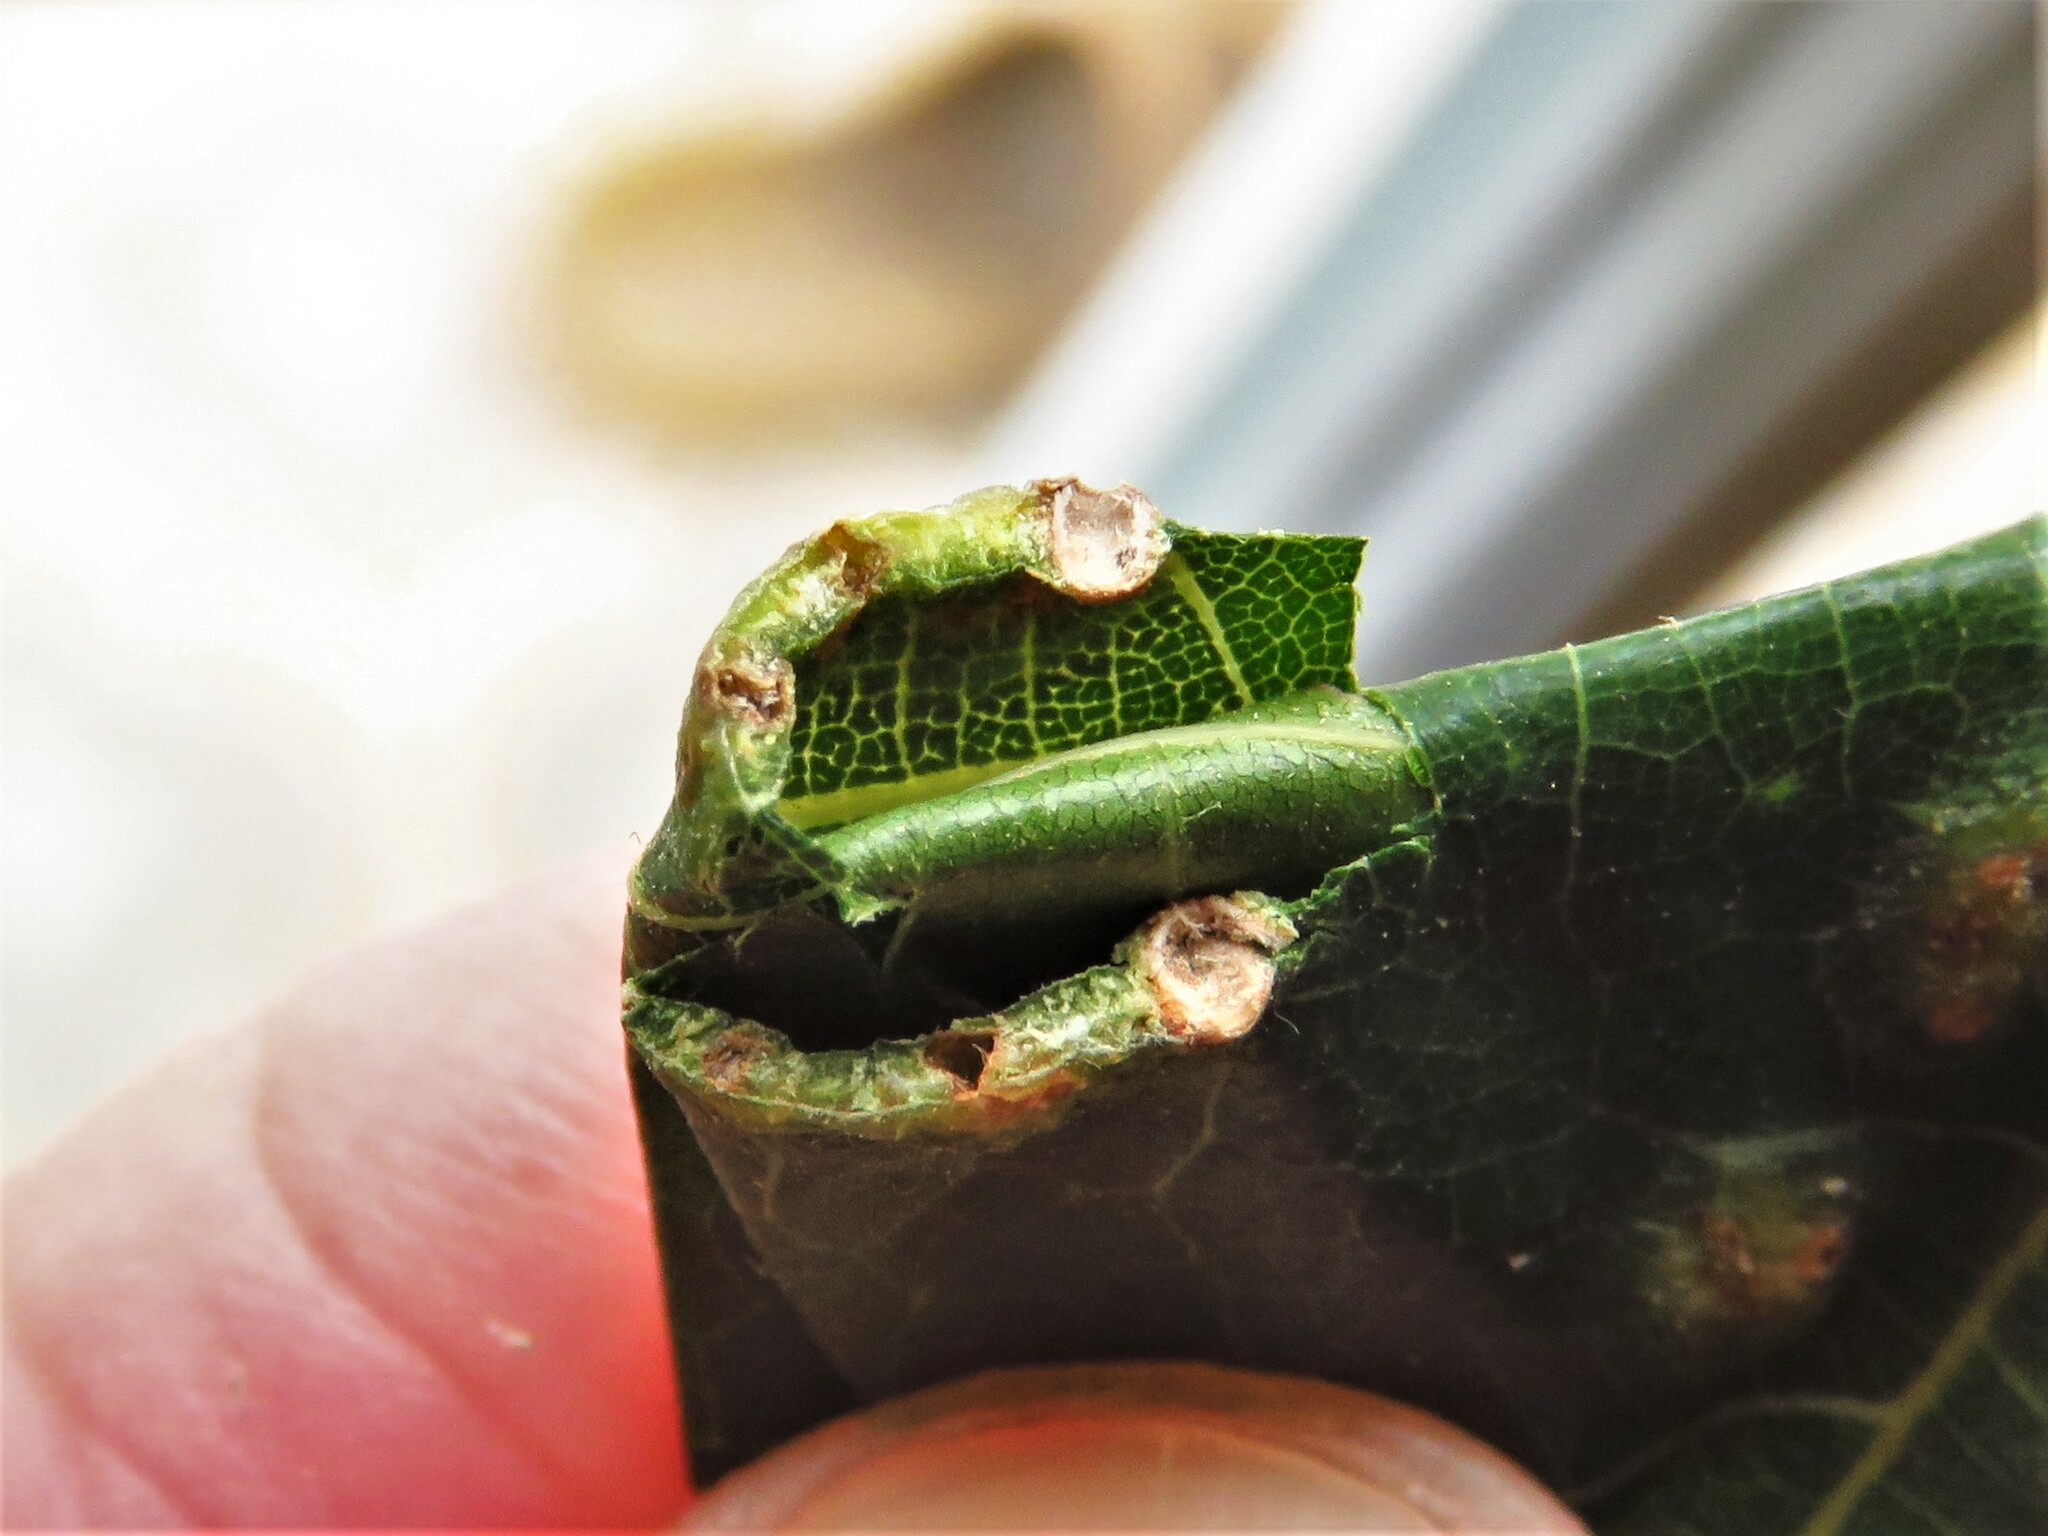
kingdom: Animalia
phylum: Arthropoda
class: Insecta
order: Hymenoptera
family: Cynipidae
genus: Melikaiella
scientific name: Melikaiella ostensackeni
